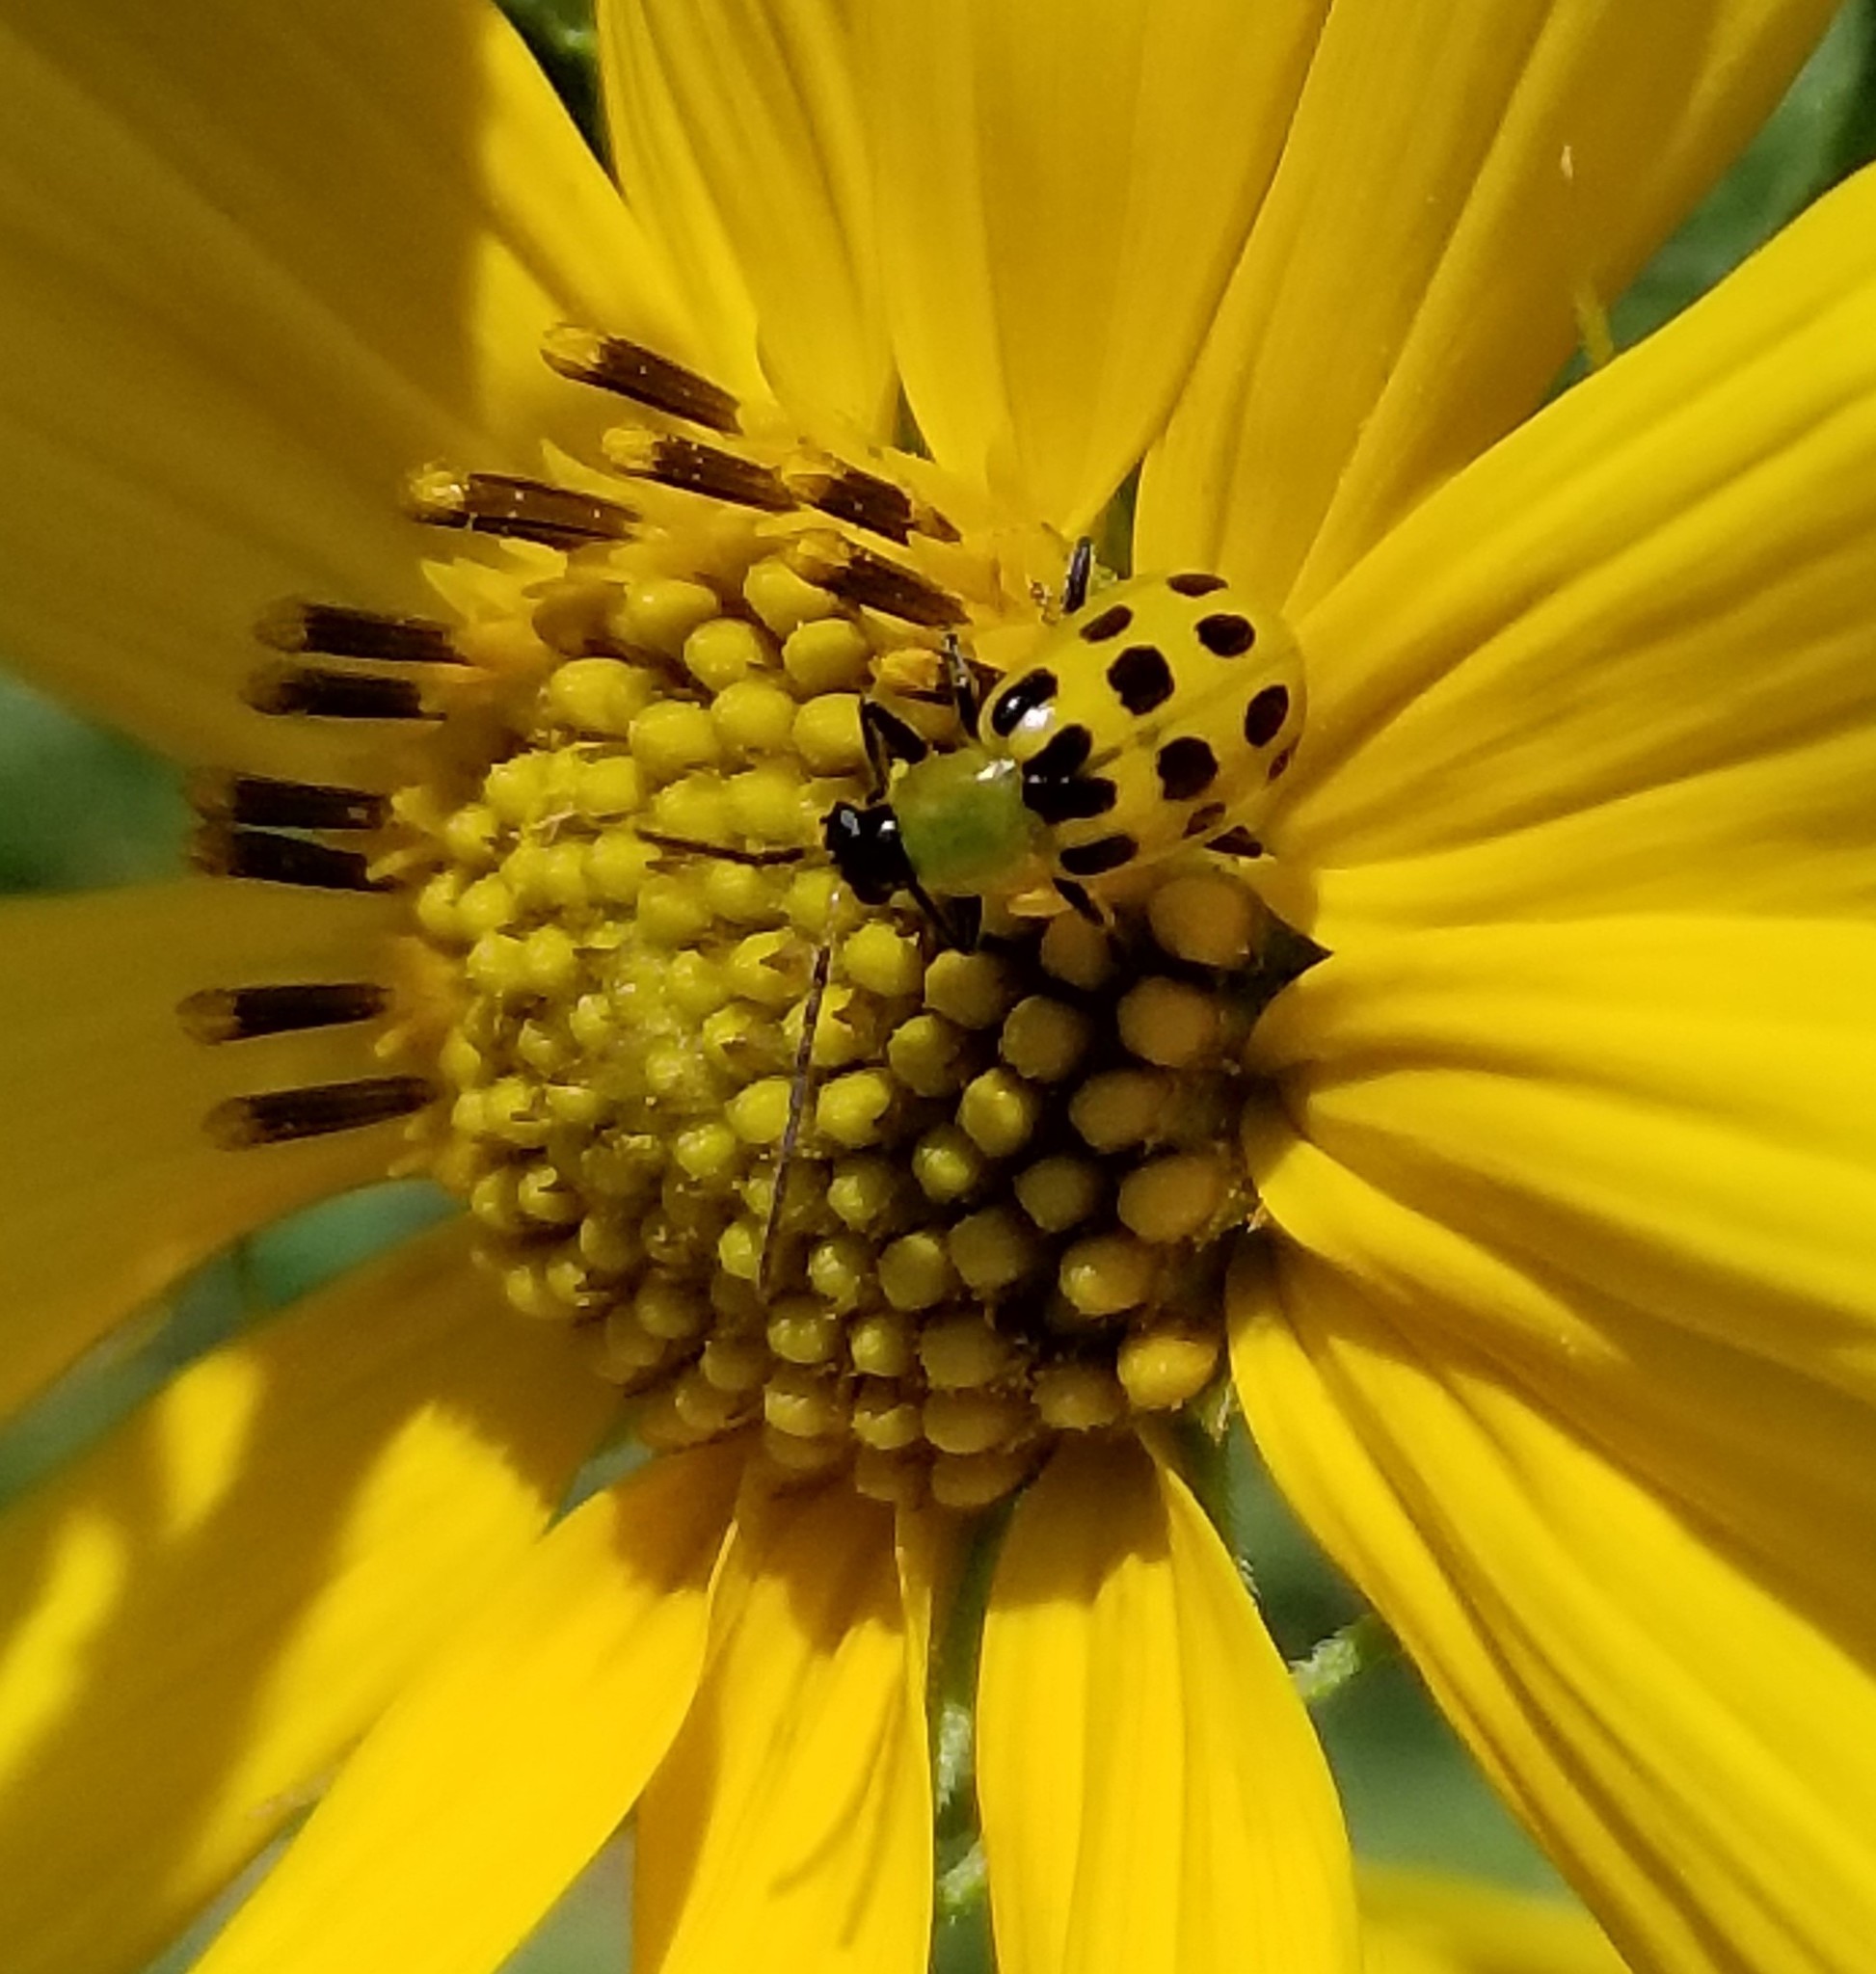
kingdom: Animalia
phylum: Arthropoda
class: Insecta
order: Coleoptera
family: Chrysomelidae
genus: Diabrotica
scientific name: Diabrotica undecimpunctata
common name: Spotted cucumber beetle
